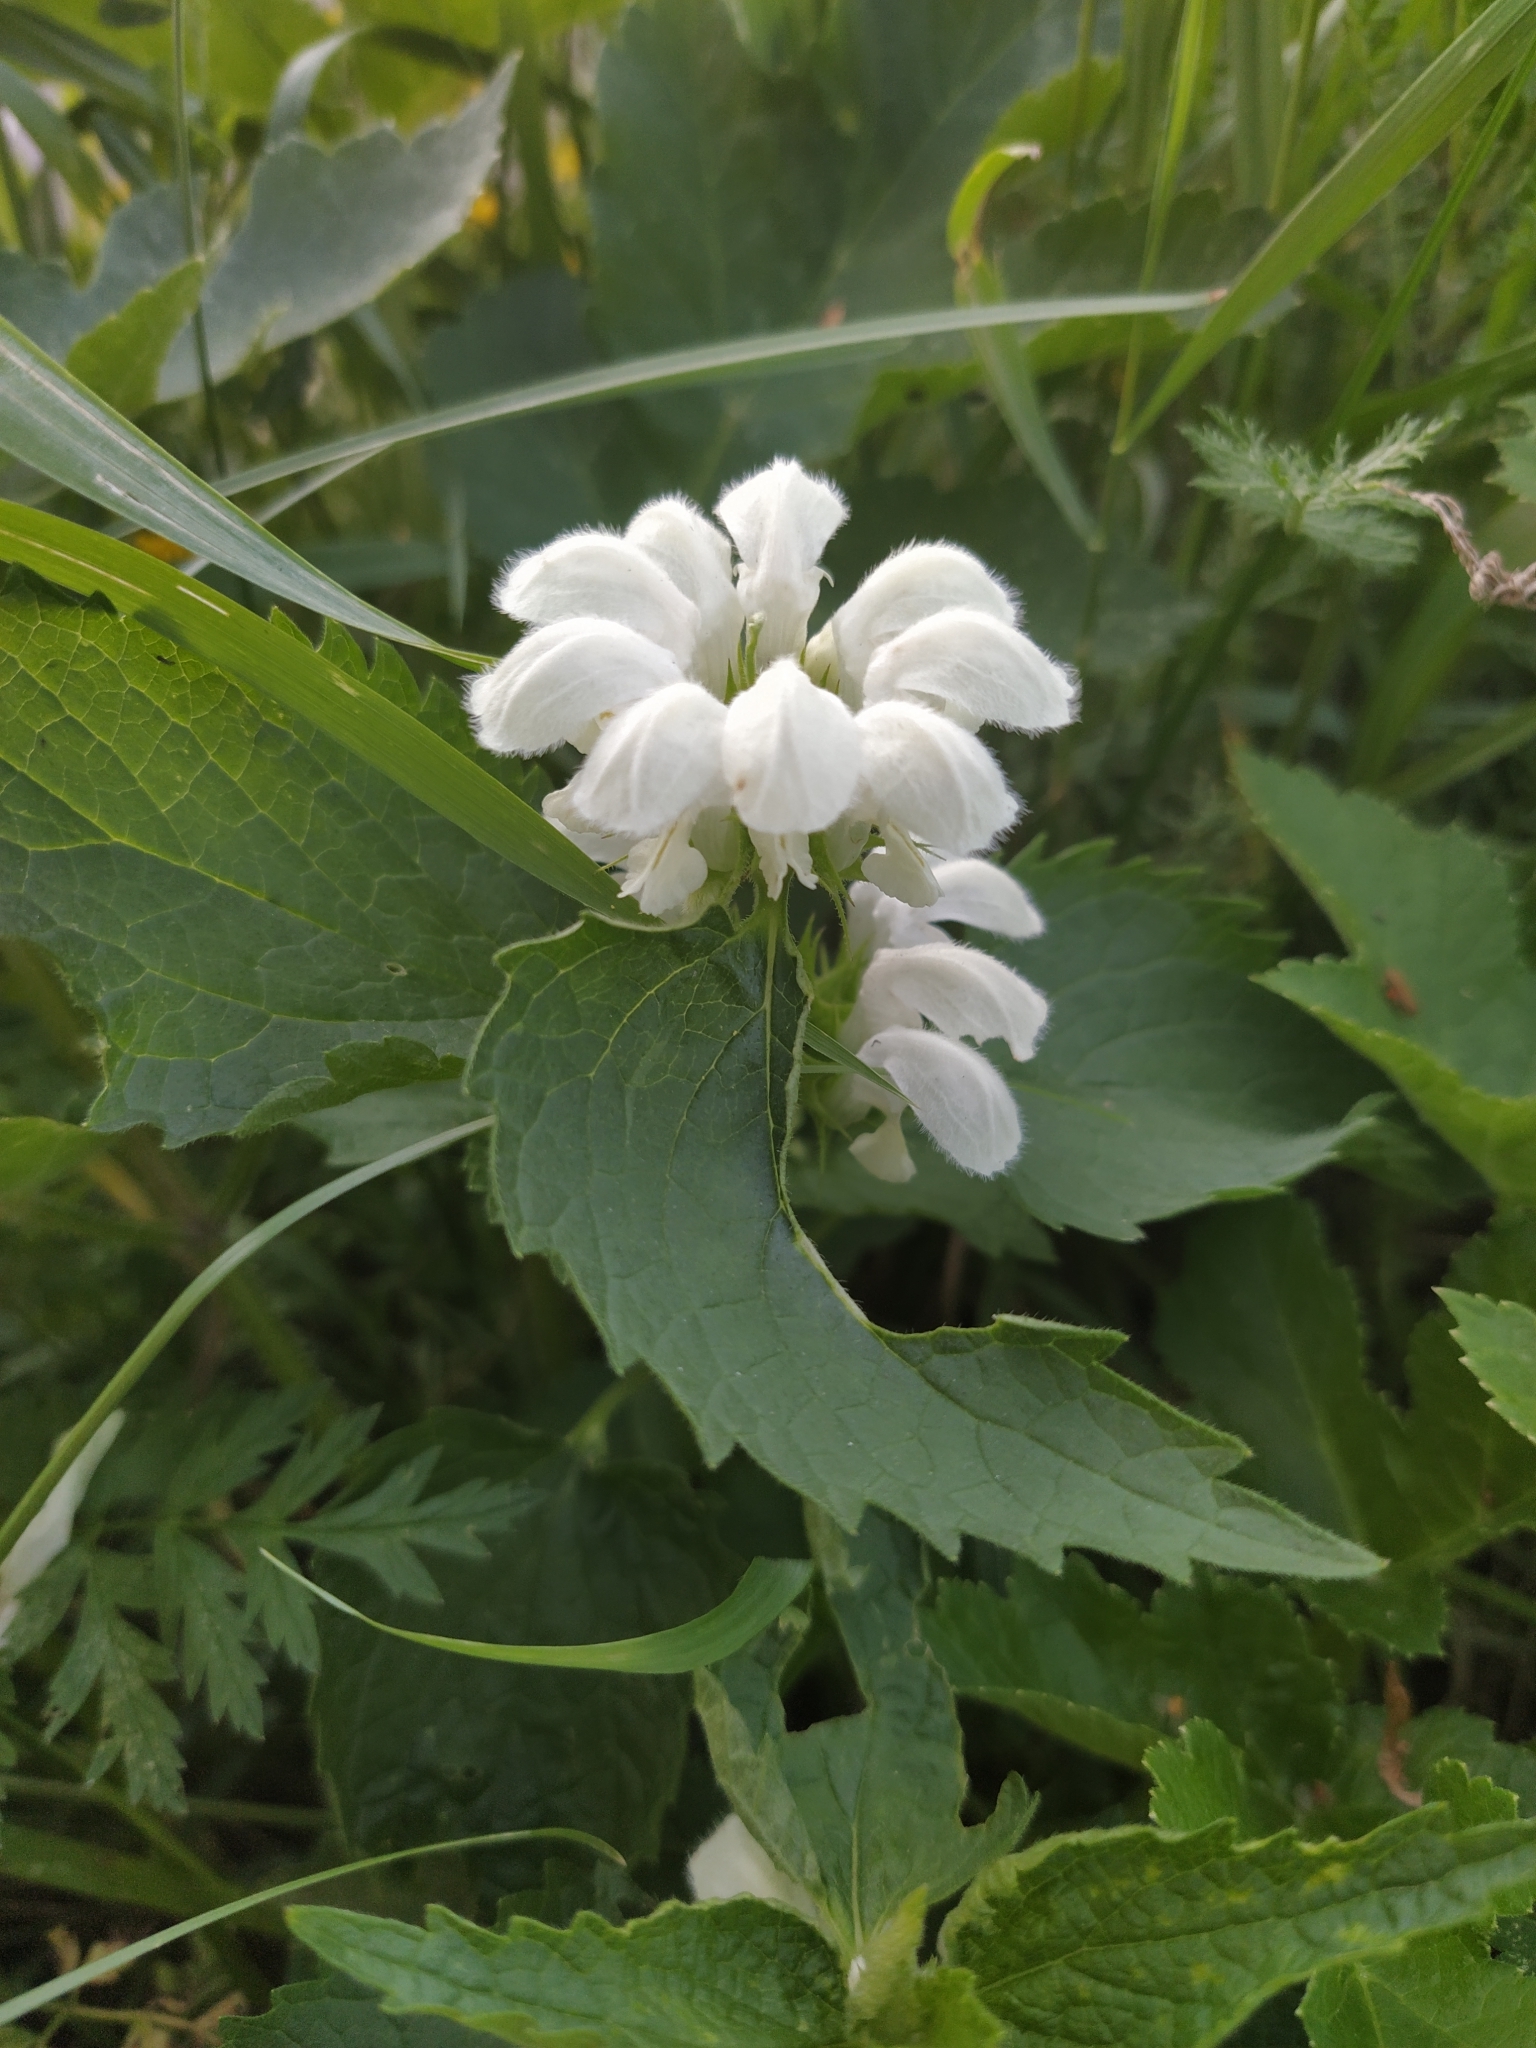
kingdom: Plantae
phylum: Tracheophyta
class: Magnoliopsida
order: Lamiales
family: Lamiaceae
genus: Lamium
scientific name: Lamium album
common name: White dead-nettle
